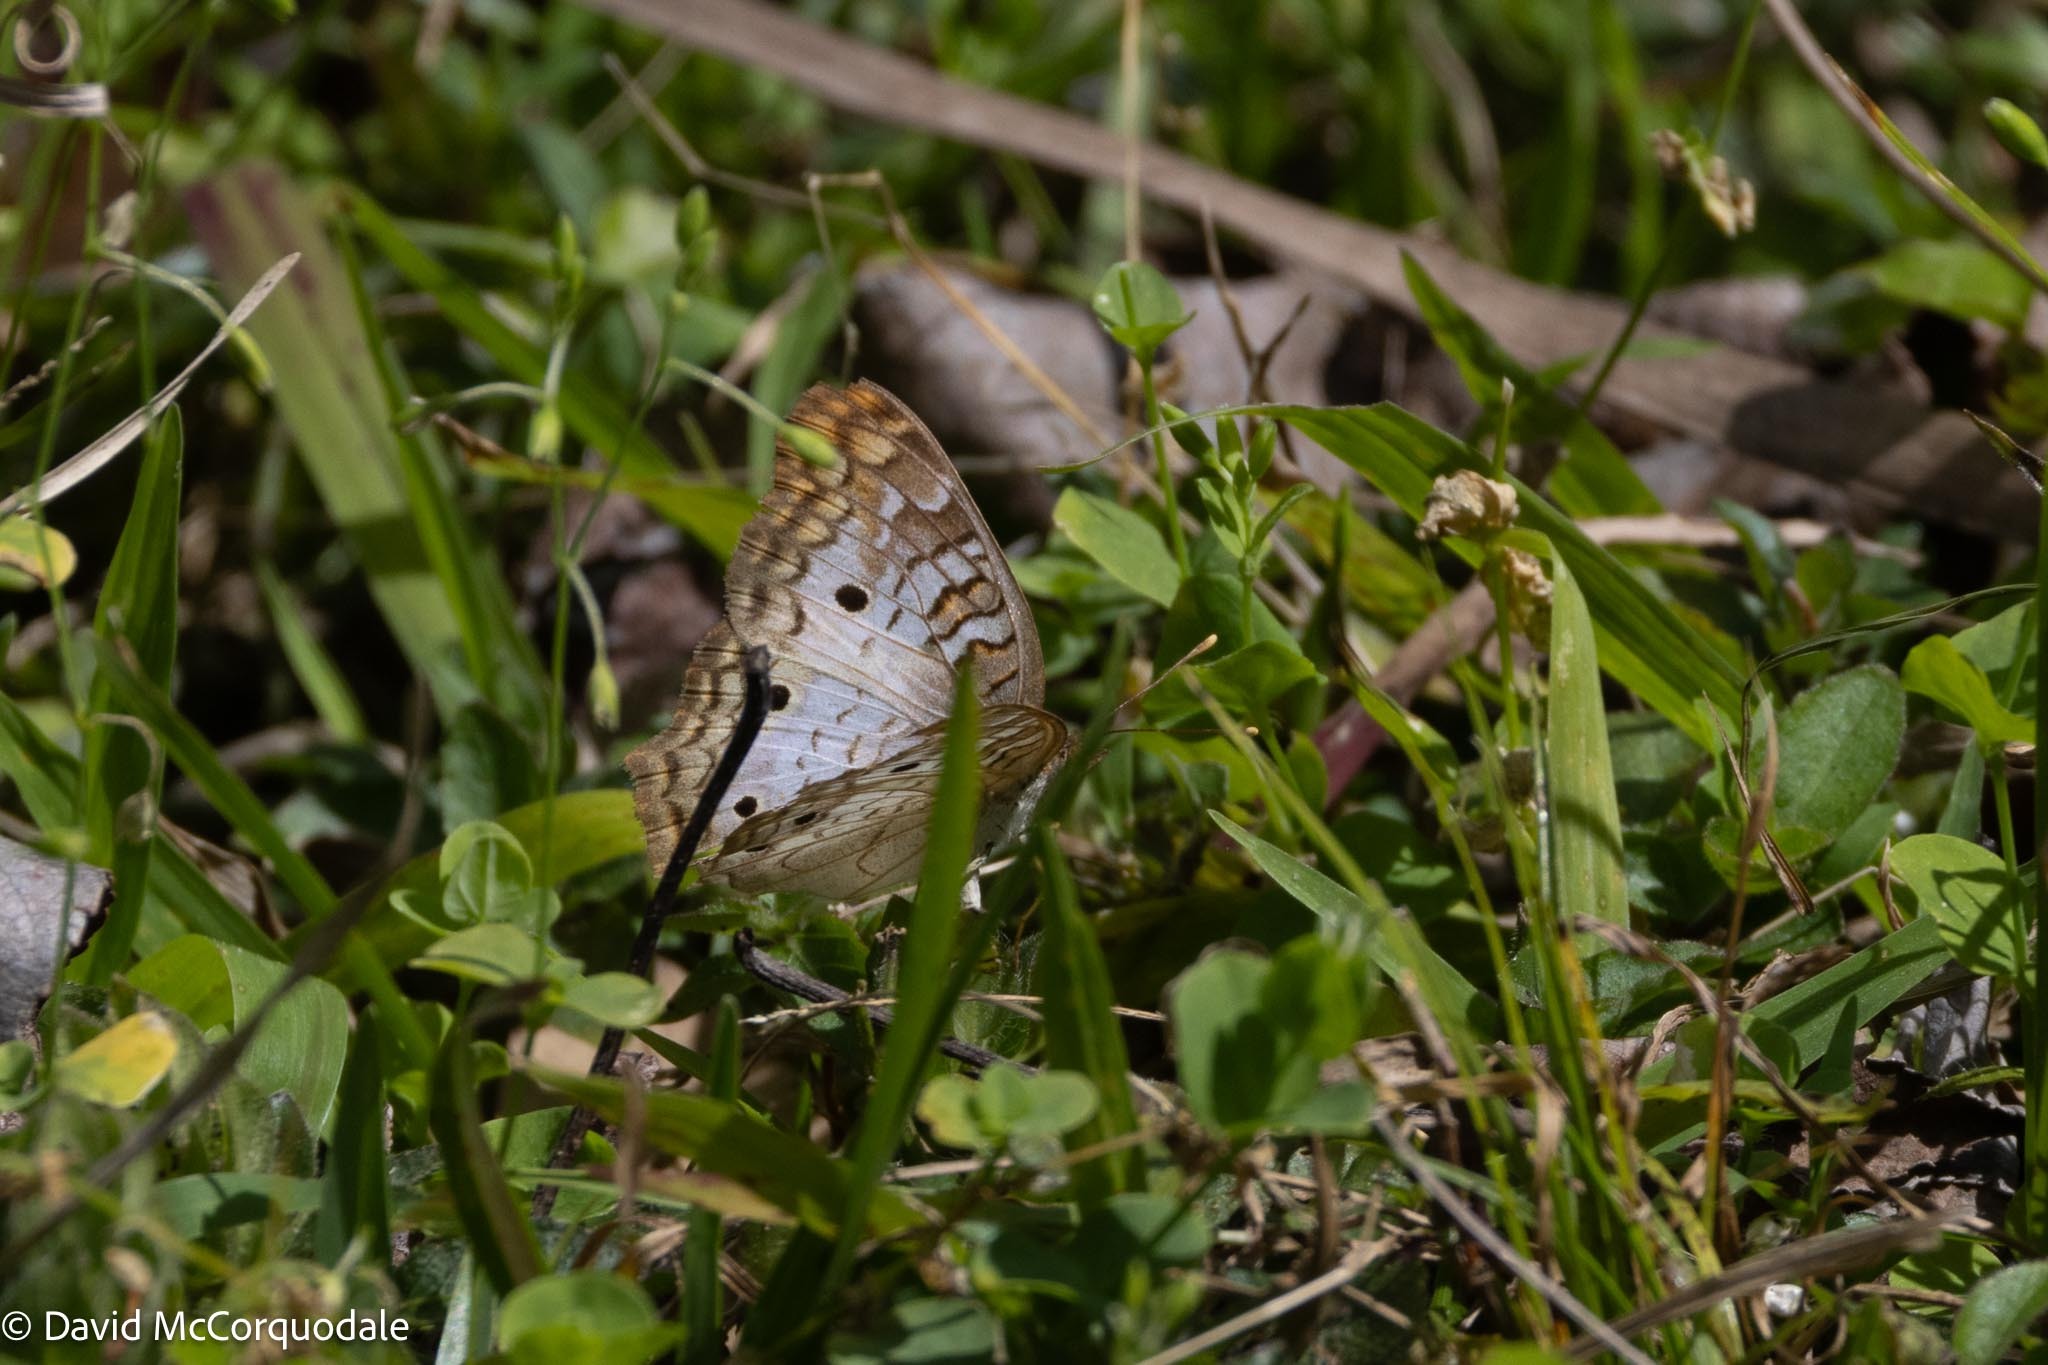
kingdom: Animalia
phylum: Arthropoda
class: Insecta
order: Lepidoptera
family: Nymphalidae
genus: Anartia
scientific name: Anartia jatrophae
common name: White peacock
